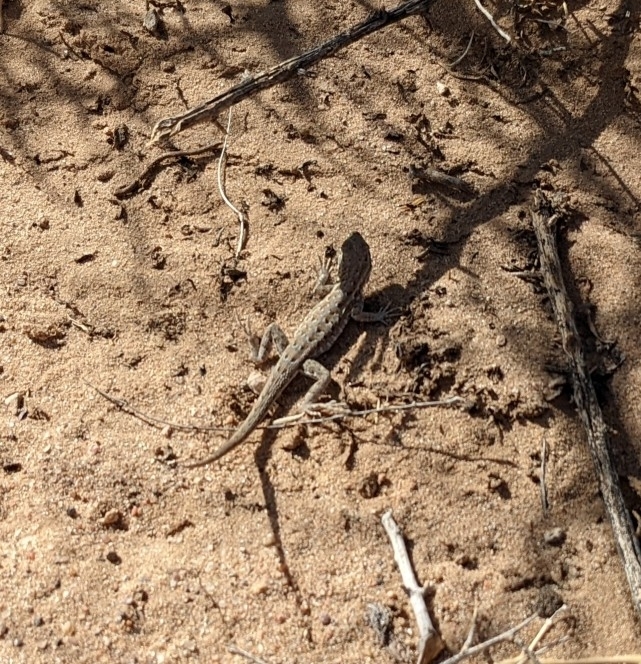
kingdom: Animalia
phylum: Chordata
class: Squamata
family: Phrynosomatidae
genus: Uta
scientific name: Uta stansburiana
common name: Side-blotched lizard
